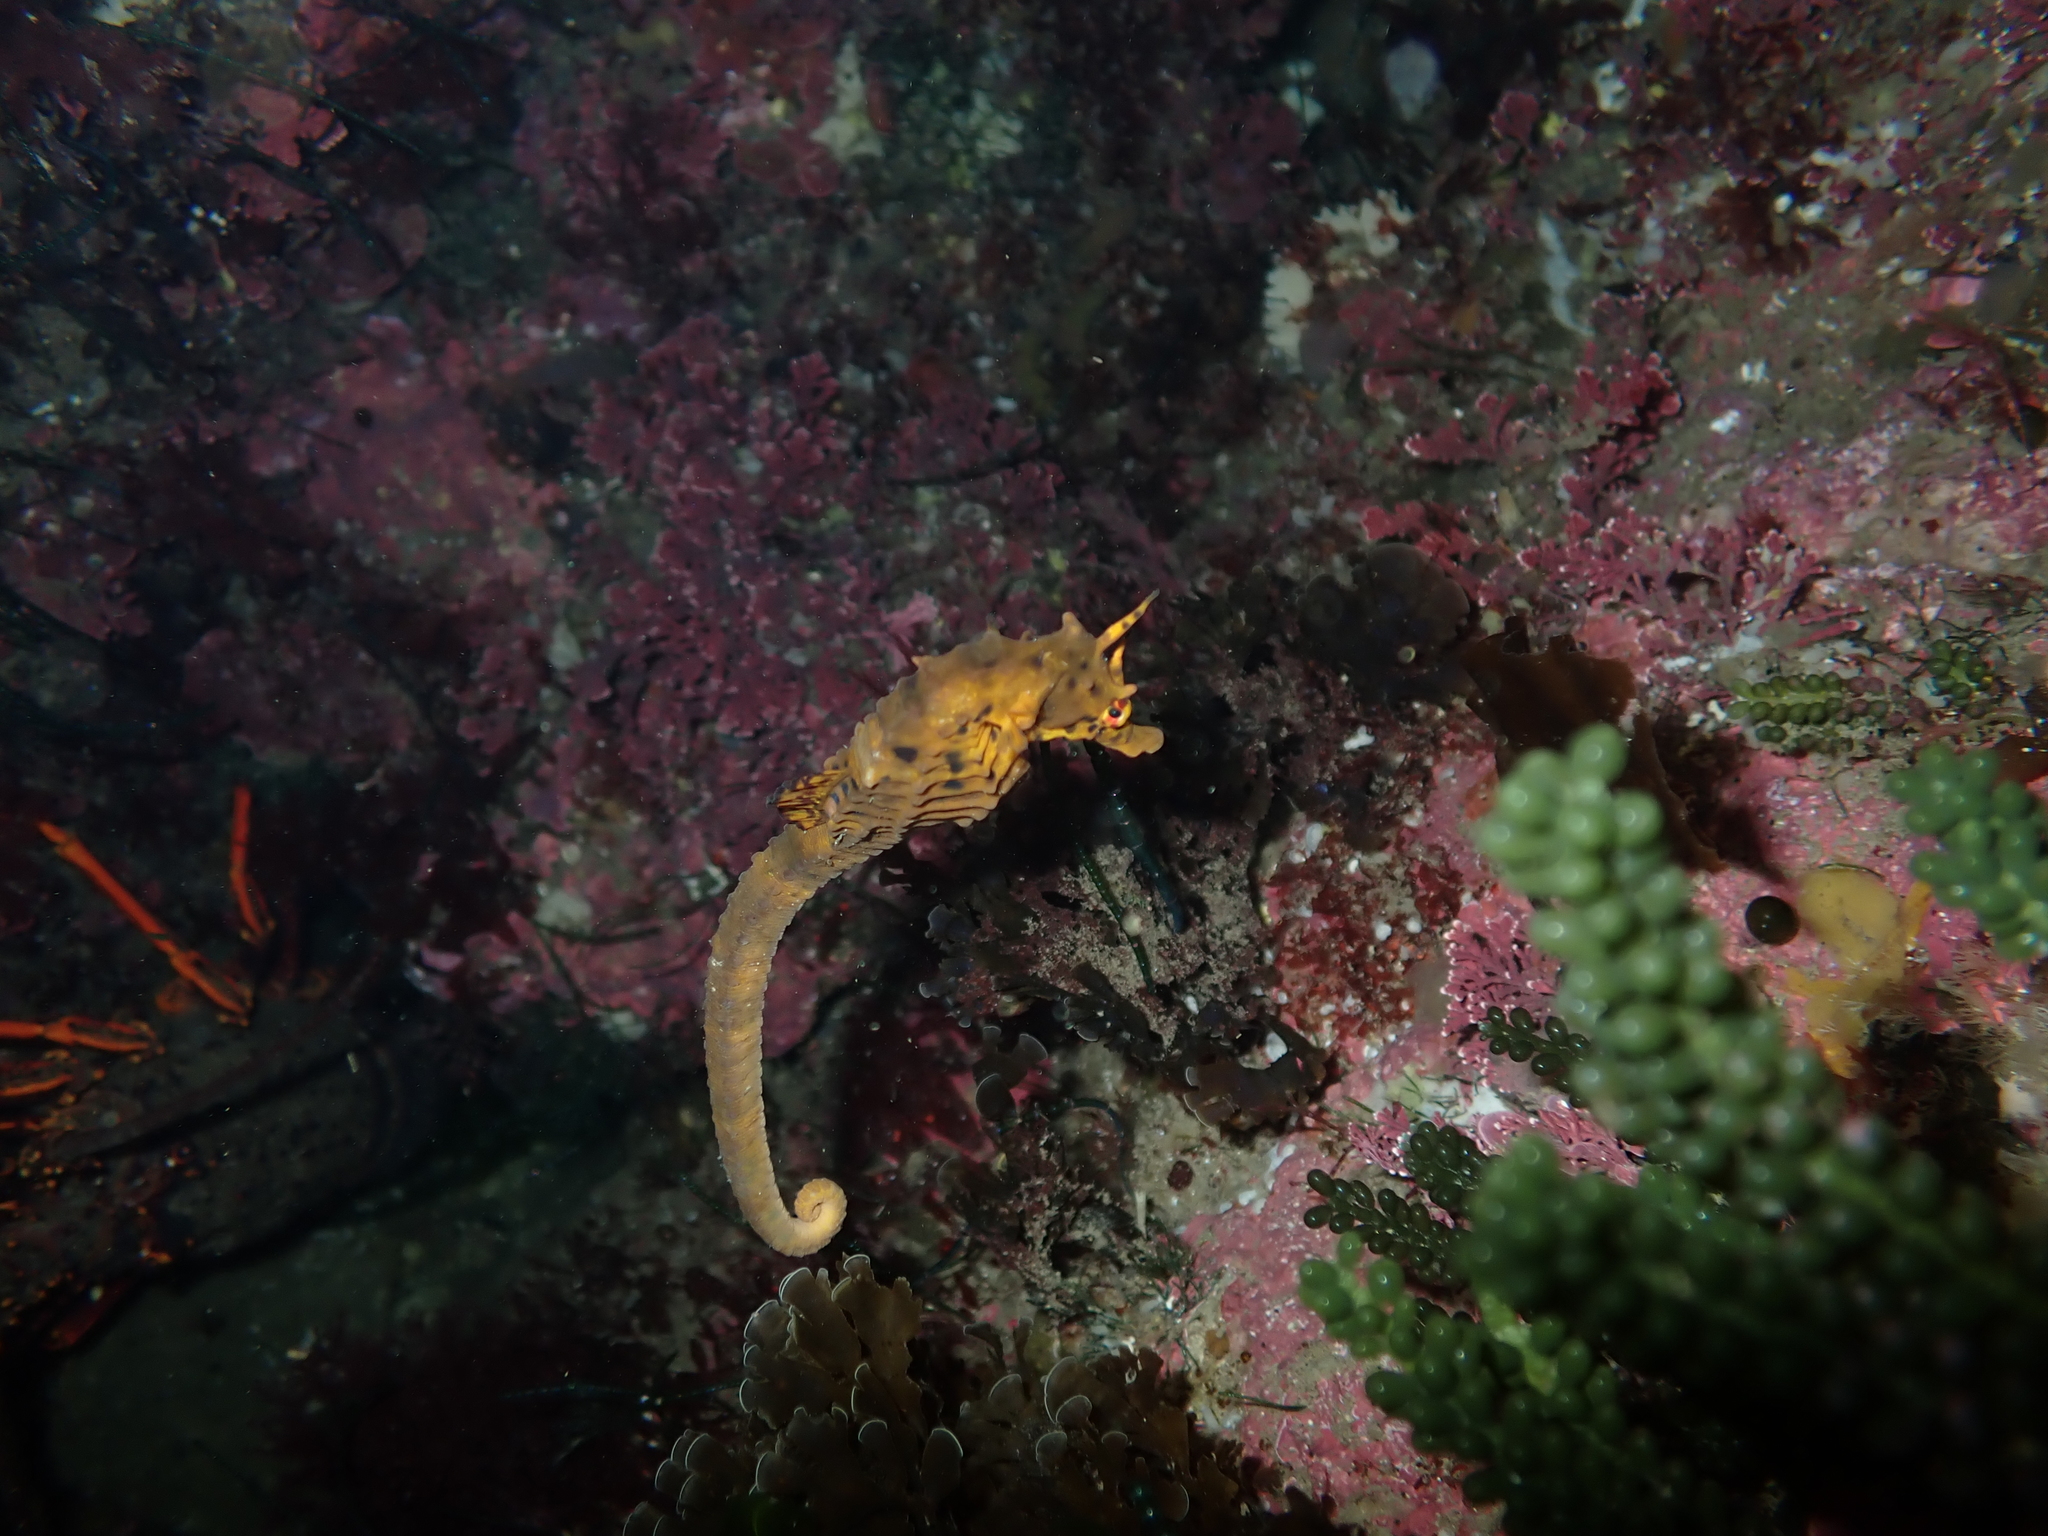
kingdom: Animalia
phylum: Chordata
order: Syngnathiformes
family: Syngnathidae
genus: Hippocampus
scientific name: Hippocampus abdominalis
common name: Big-belly seahorse
